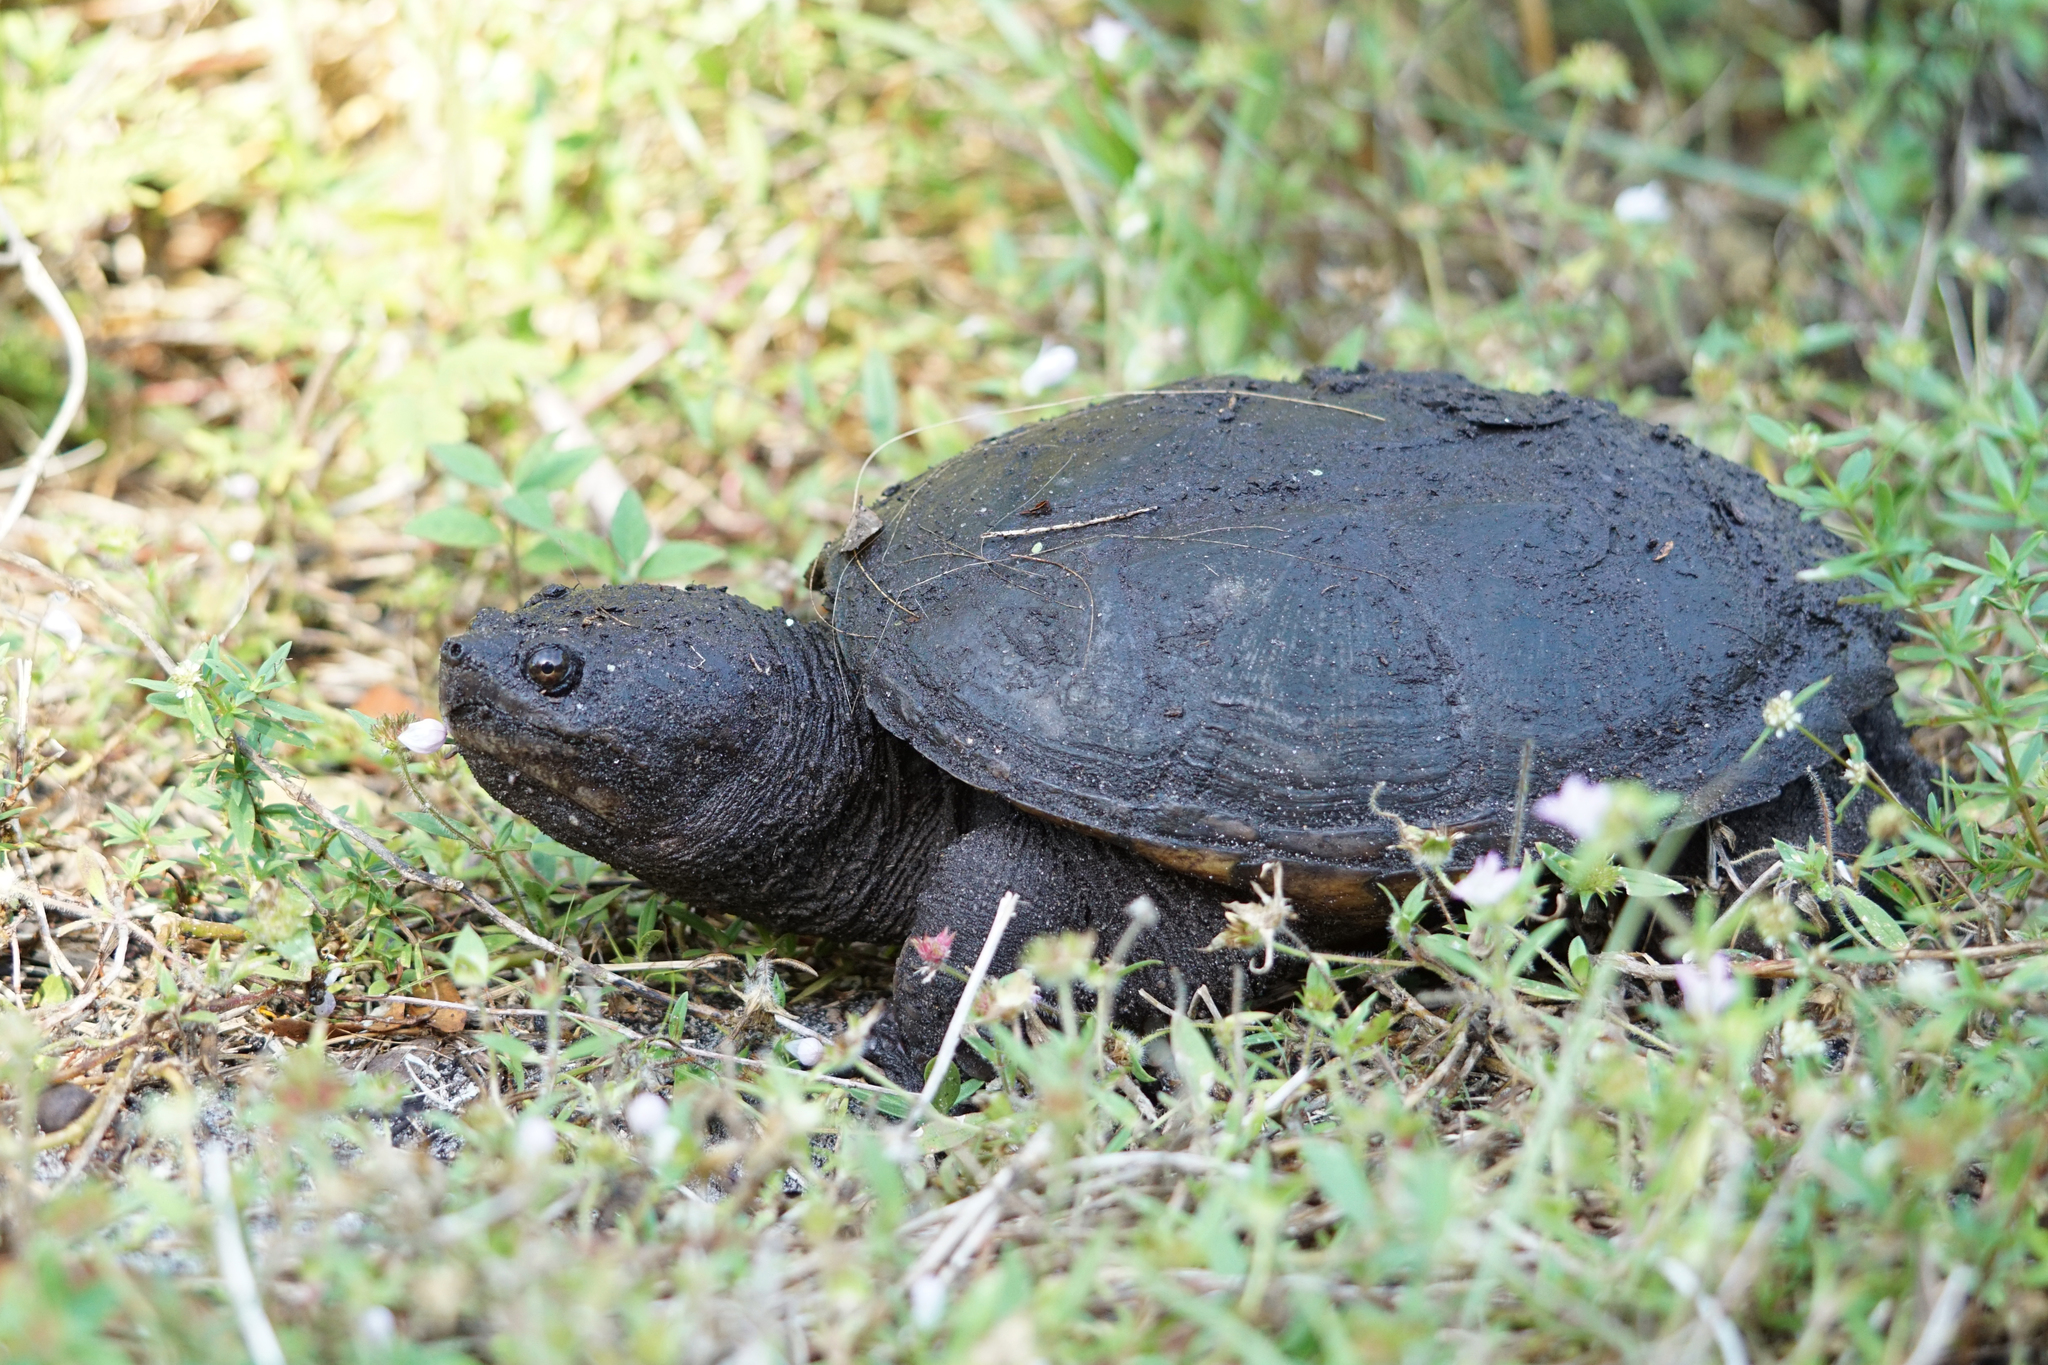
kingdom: Animalia
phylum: Chordata
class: Testudines
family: Chelydridae
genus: Chelydra
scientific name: Chelydra serpentina
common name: Common snapping turtle
